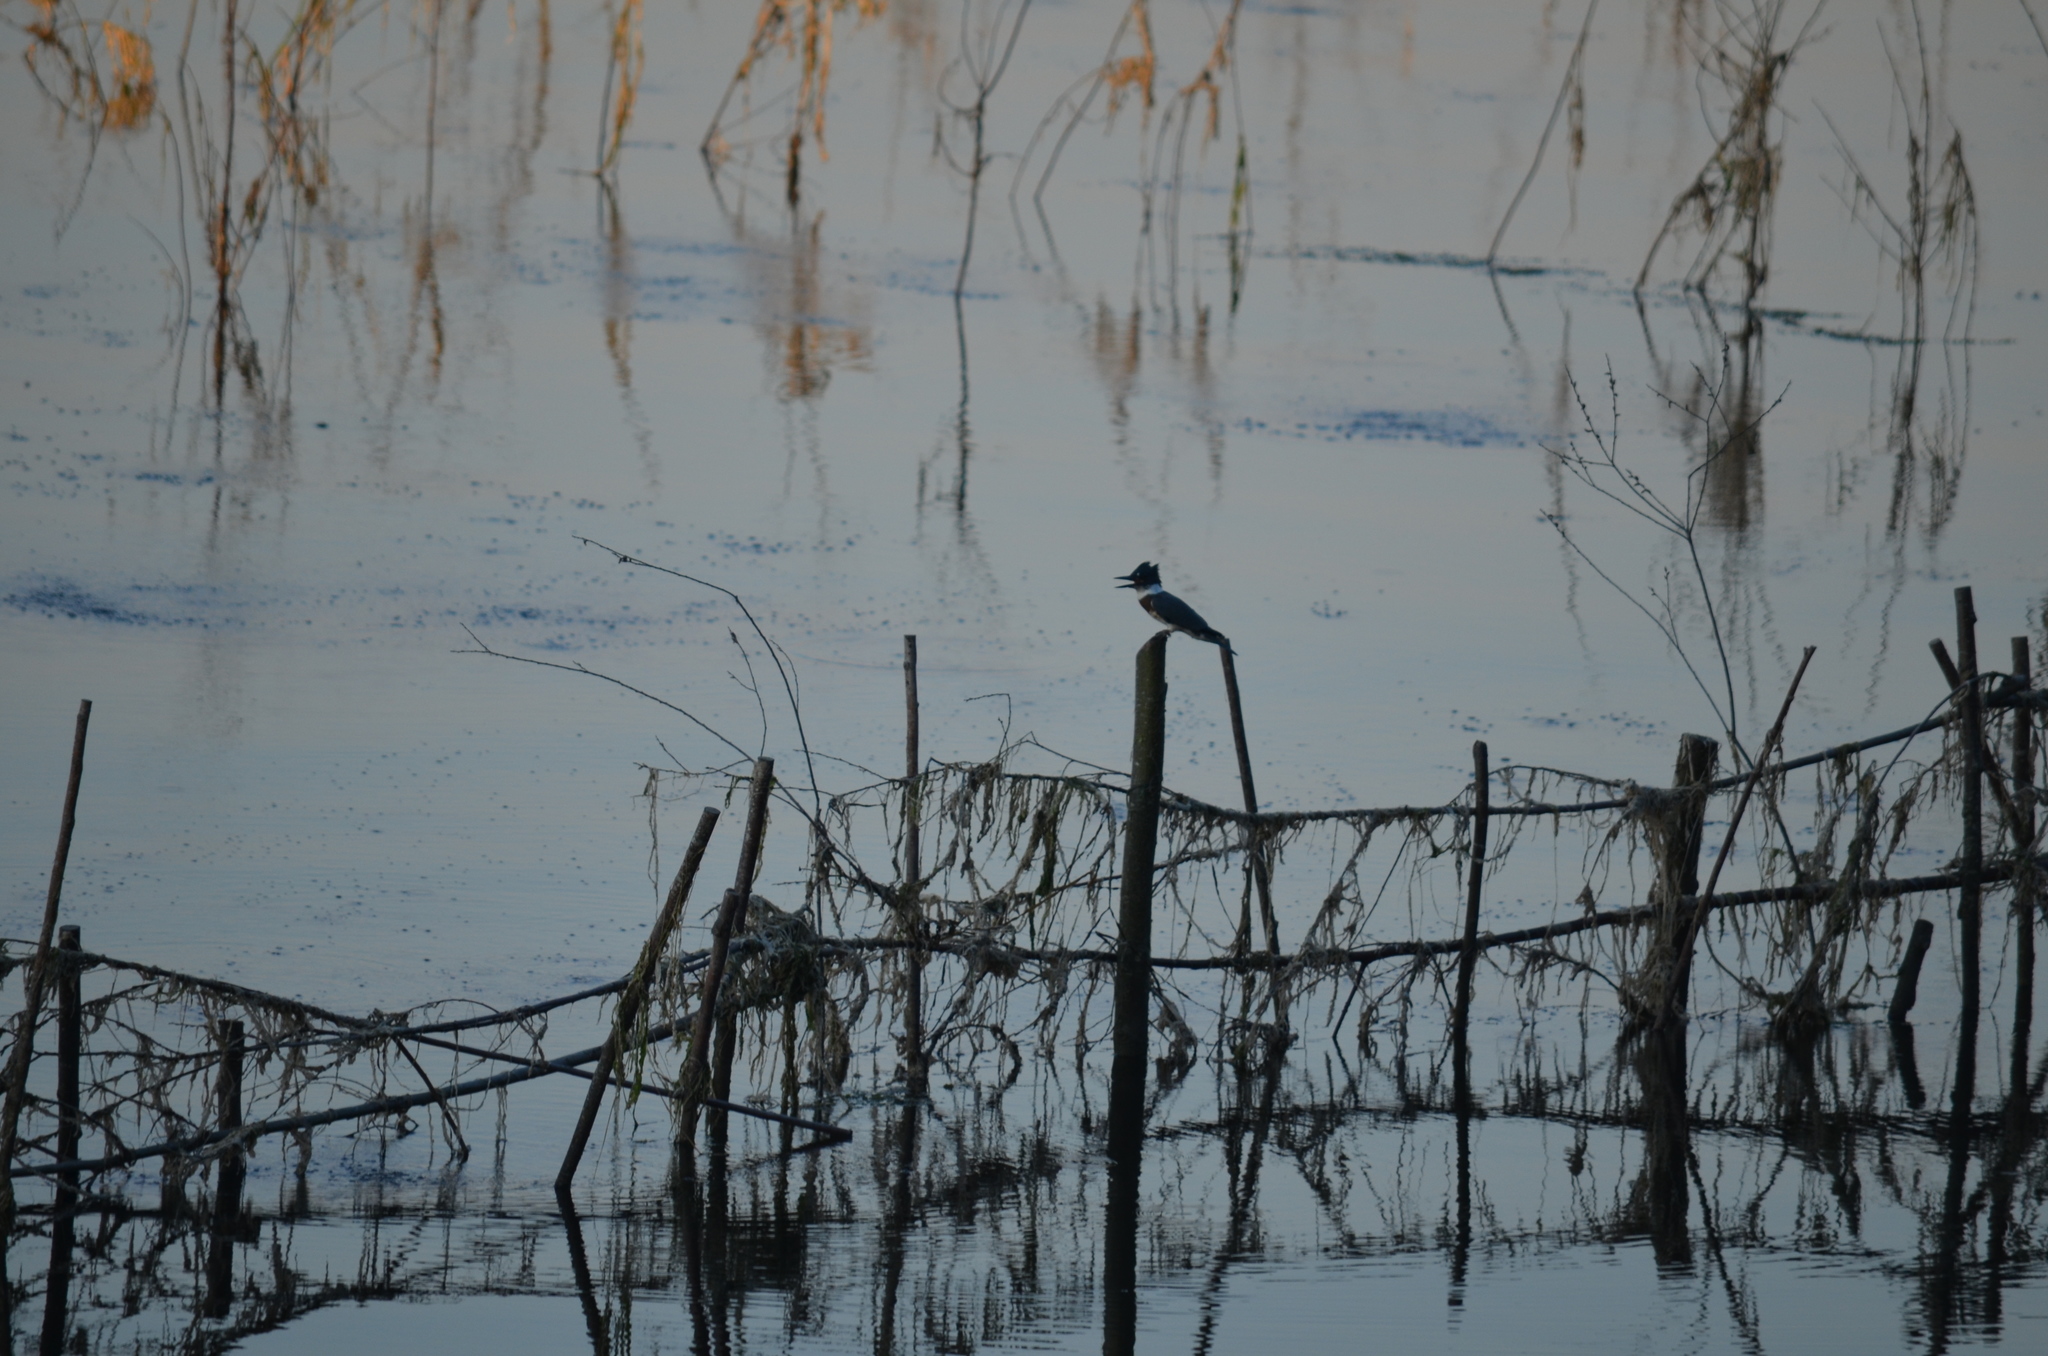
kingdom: Animalia
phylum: Chordata
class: Aves
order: Coraciiformes
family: Alcedinidae
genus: Megaceryle
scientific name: Megaceryle alcyon
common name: Belted kingfisher
